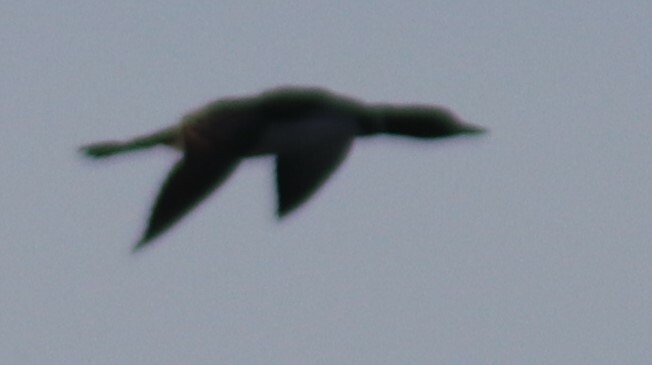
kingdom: Animalia
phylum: Chordata
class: Aves
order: Gaviiformes
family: Gaviidae
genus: Gavia
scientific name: Gavia immer
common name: Common loon
